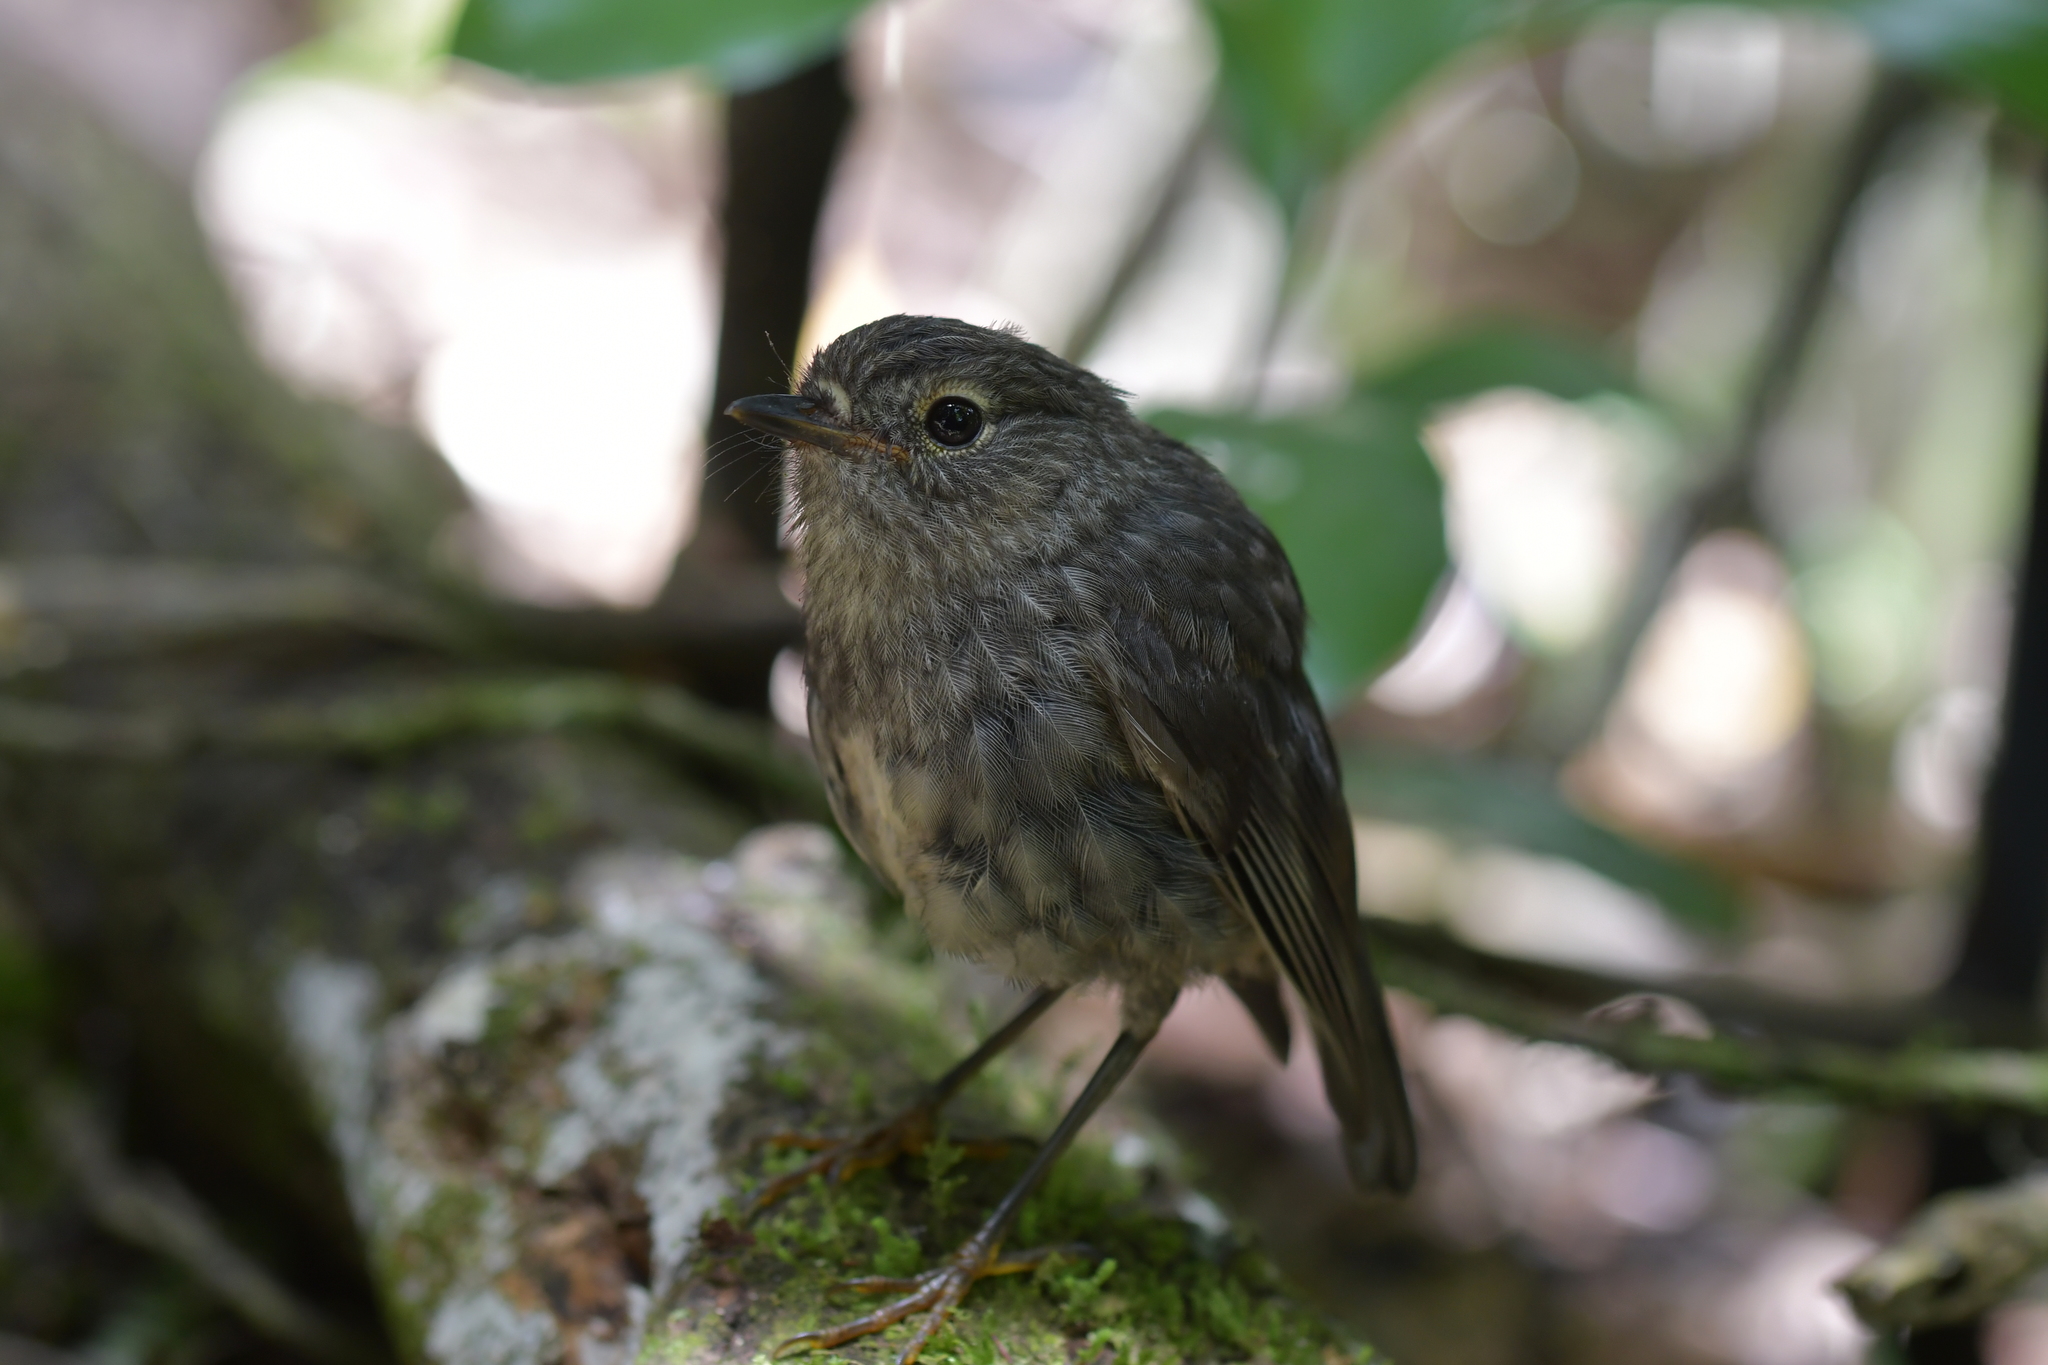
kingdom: Animalia
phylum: Chordata
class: Aves
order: Passeriformes
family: Petroicidae
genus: Petroica
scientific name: Petroica australis
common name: New zealand robin
